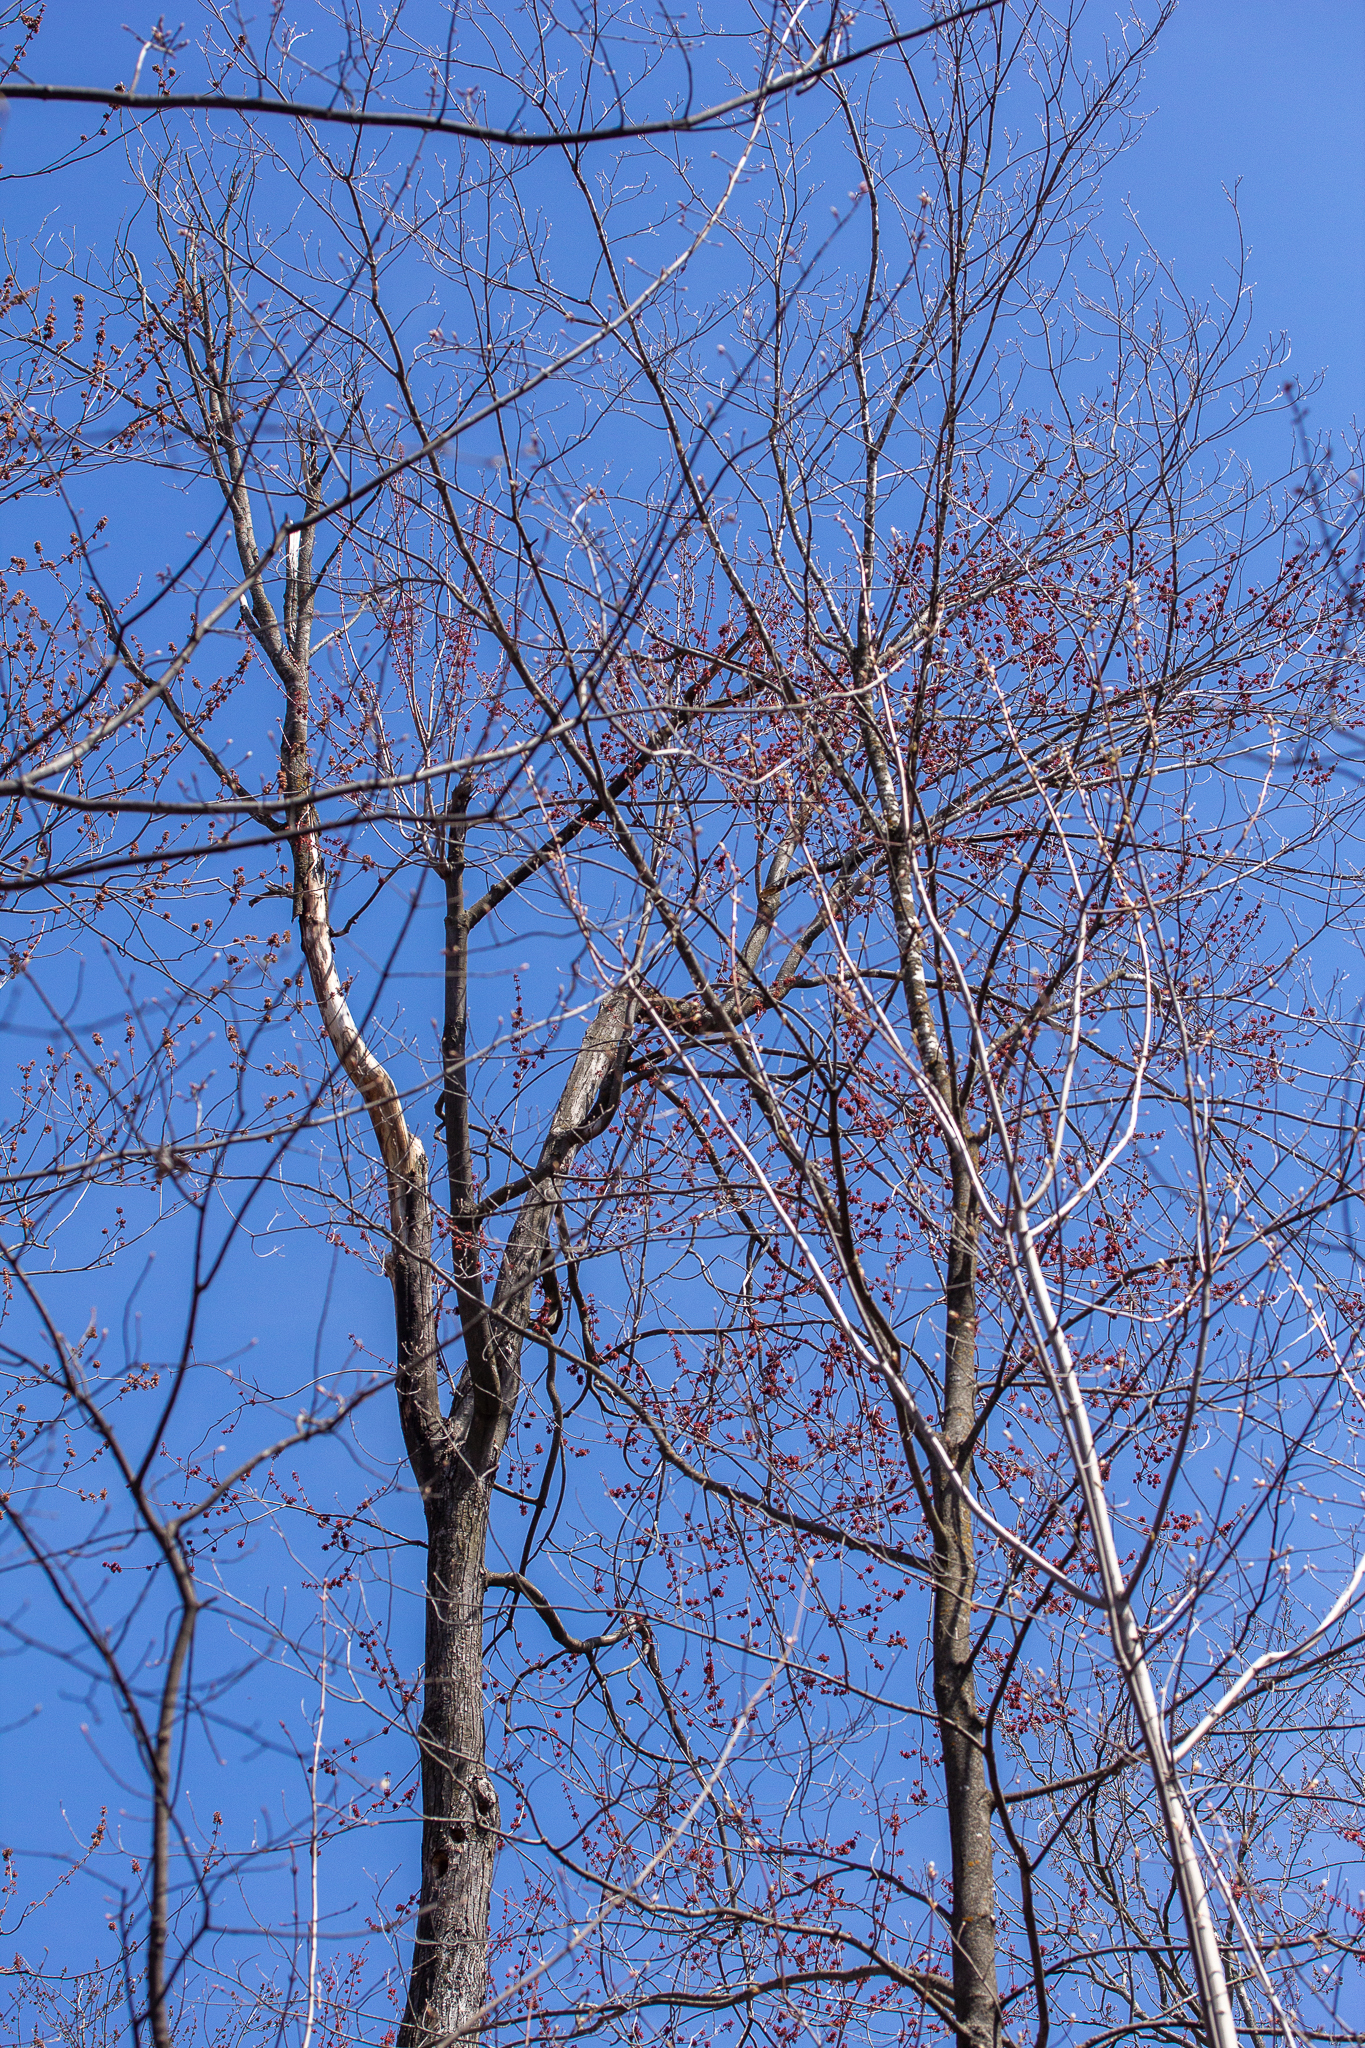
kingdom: Plantae
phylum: Tracheophyta
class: Magnoliopsida
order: Sapindales
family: Sapindaceae
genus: Acer
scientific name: Acer rubrum
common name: Red maple
